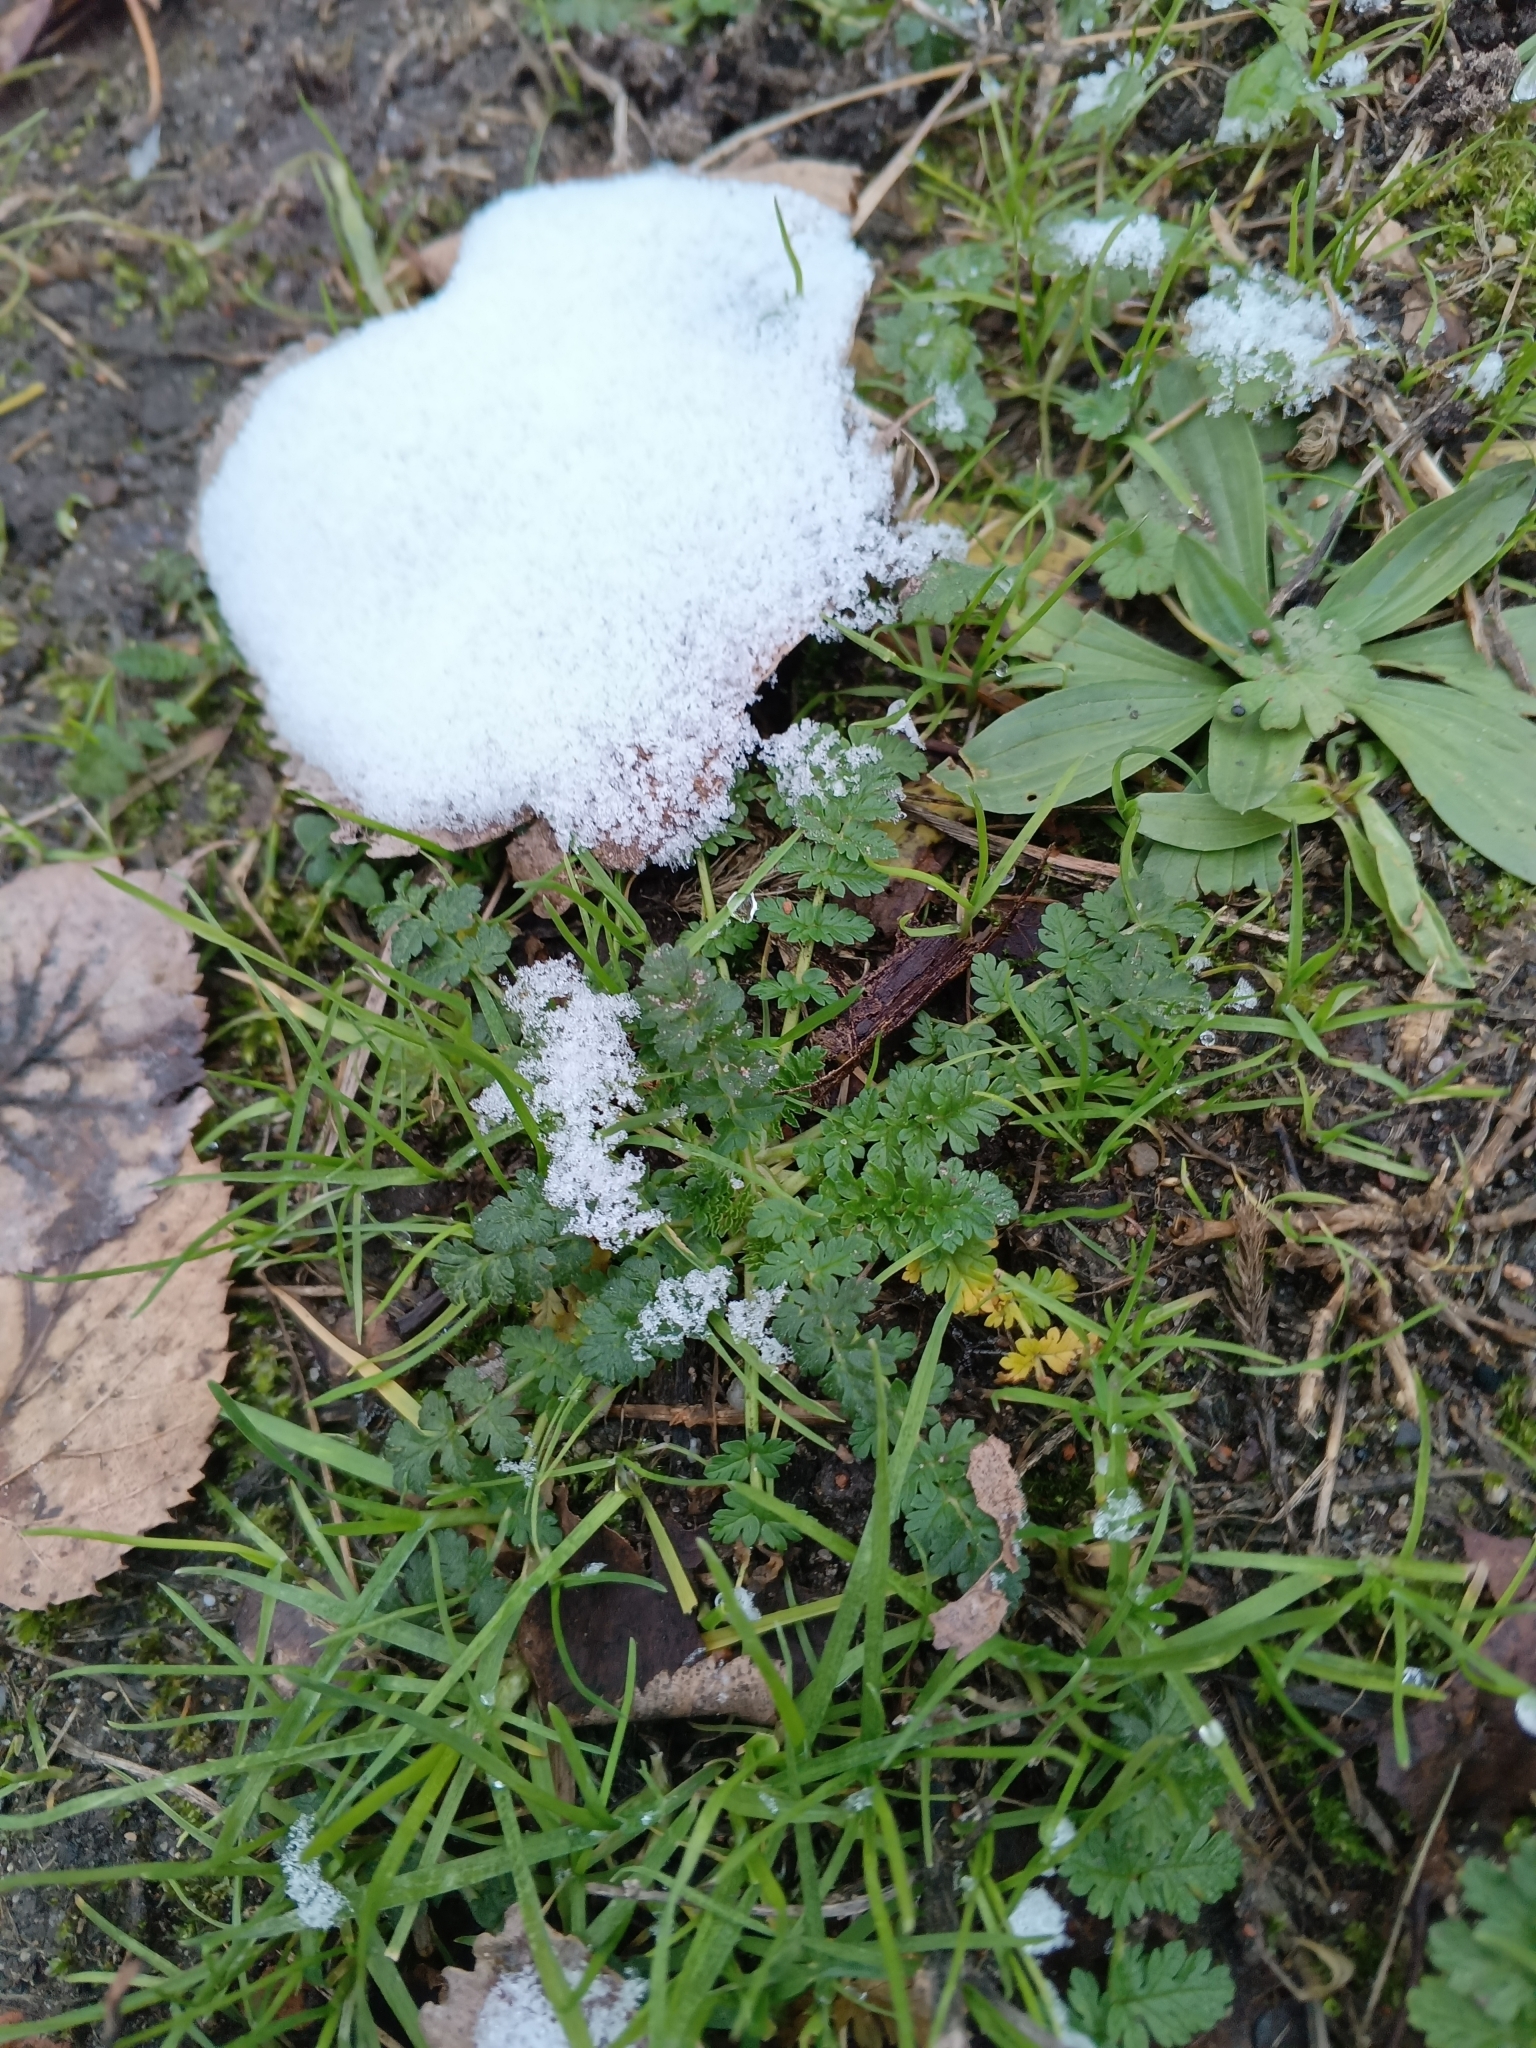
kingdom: Plantae
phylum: Tracheophyta
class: Magnoliopsida
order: Geraniales
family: Geraniaceae
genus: Erodium
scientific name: Erodium cicutarium
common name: Common stork's-bill
